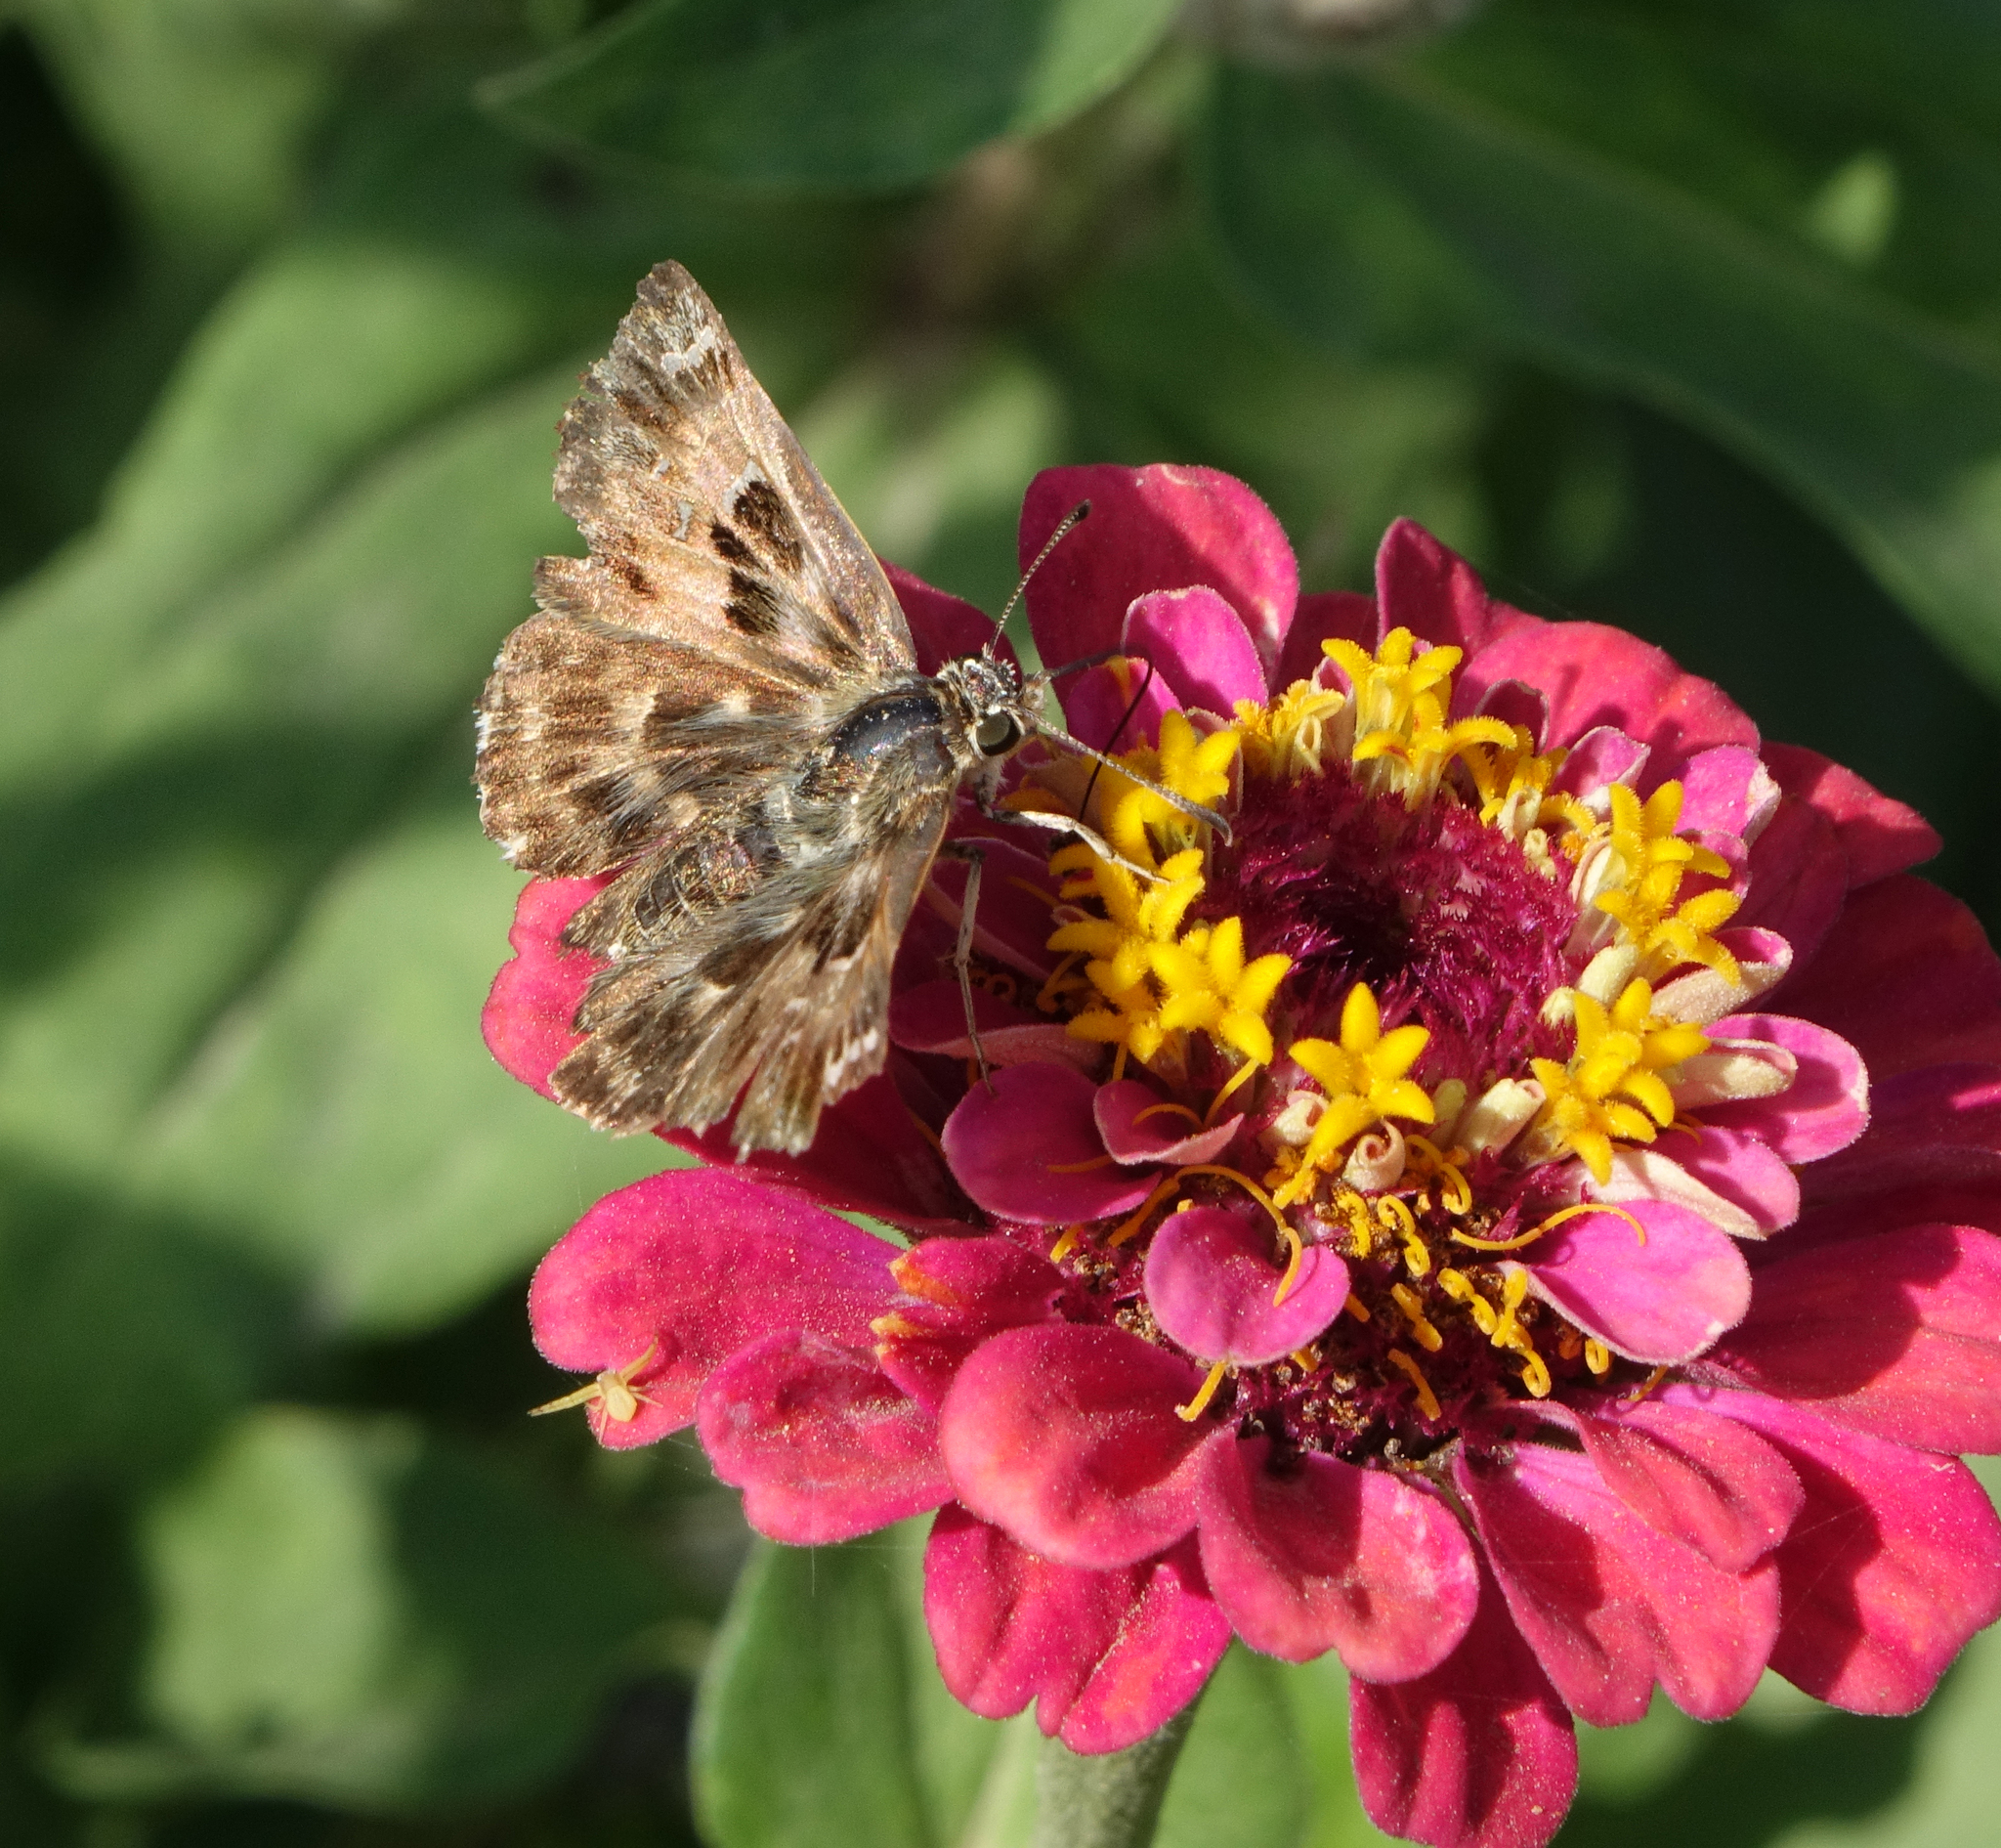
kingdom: Animalia
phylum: Arthropoda
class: Insecta
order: Lepidoptera
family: Hesperiidae
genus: Carcharodus
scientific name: Carcharodus alceae
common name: Mallow skipper
